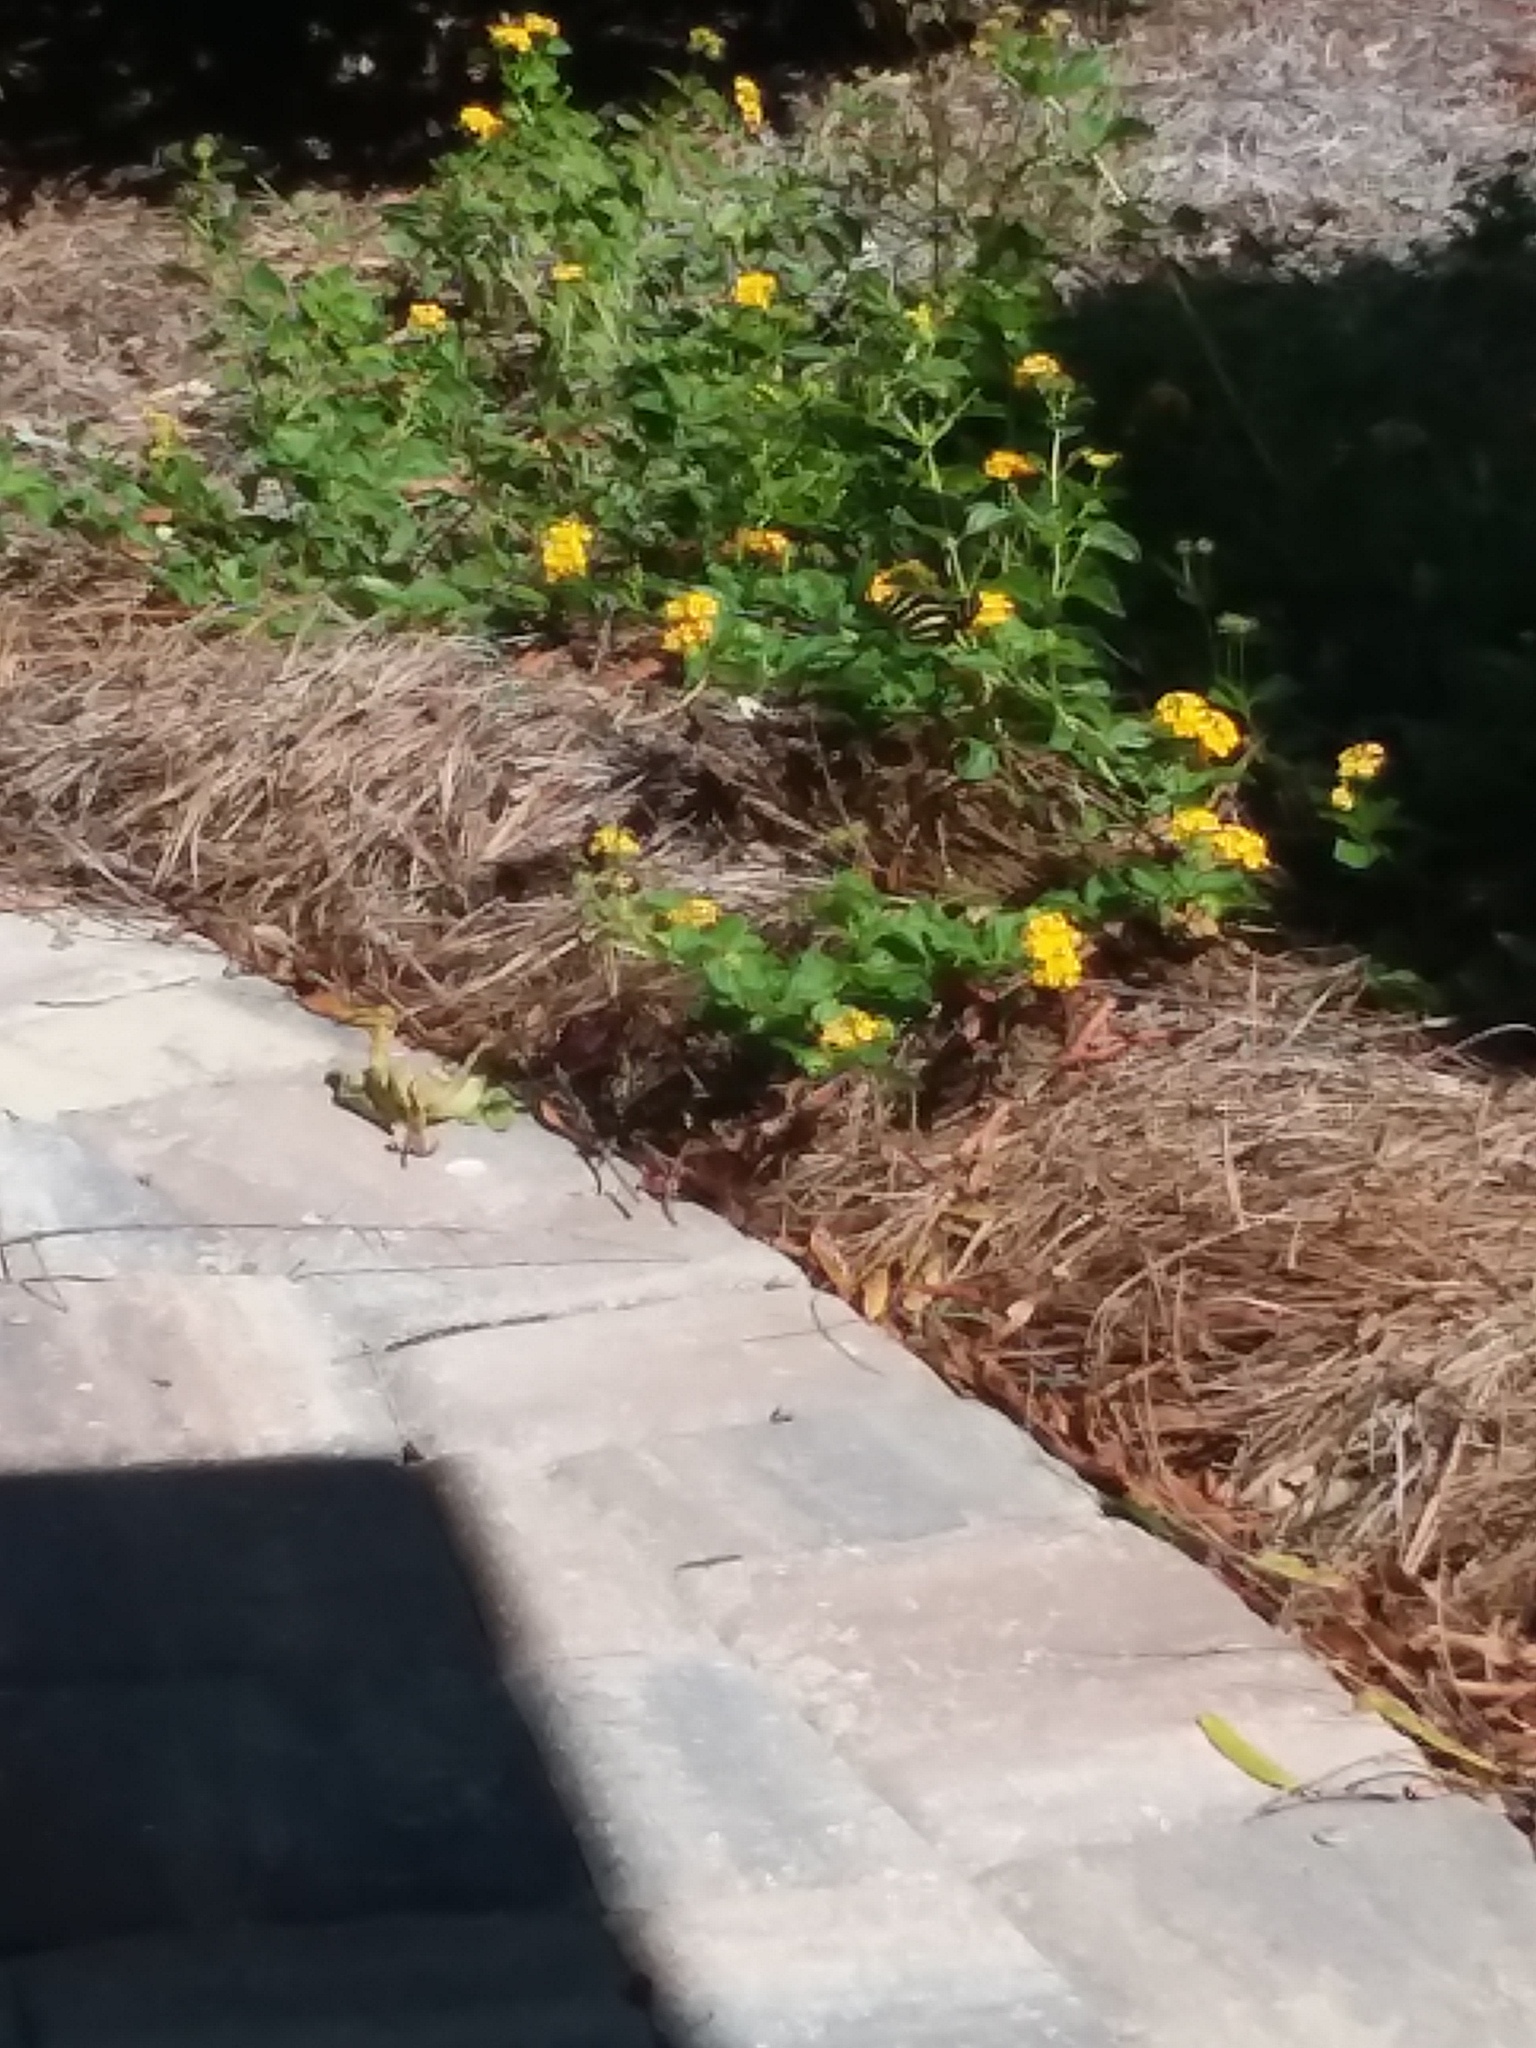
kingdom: Animalia
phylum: Arthropoda
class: Insecta
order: Lepidoptera
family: Nymphalidae
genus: Heliconius
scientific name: Heliconius charithonia
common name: Zebra long wing
